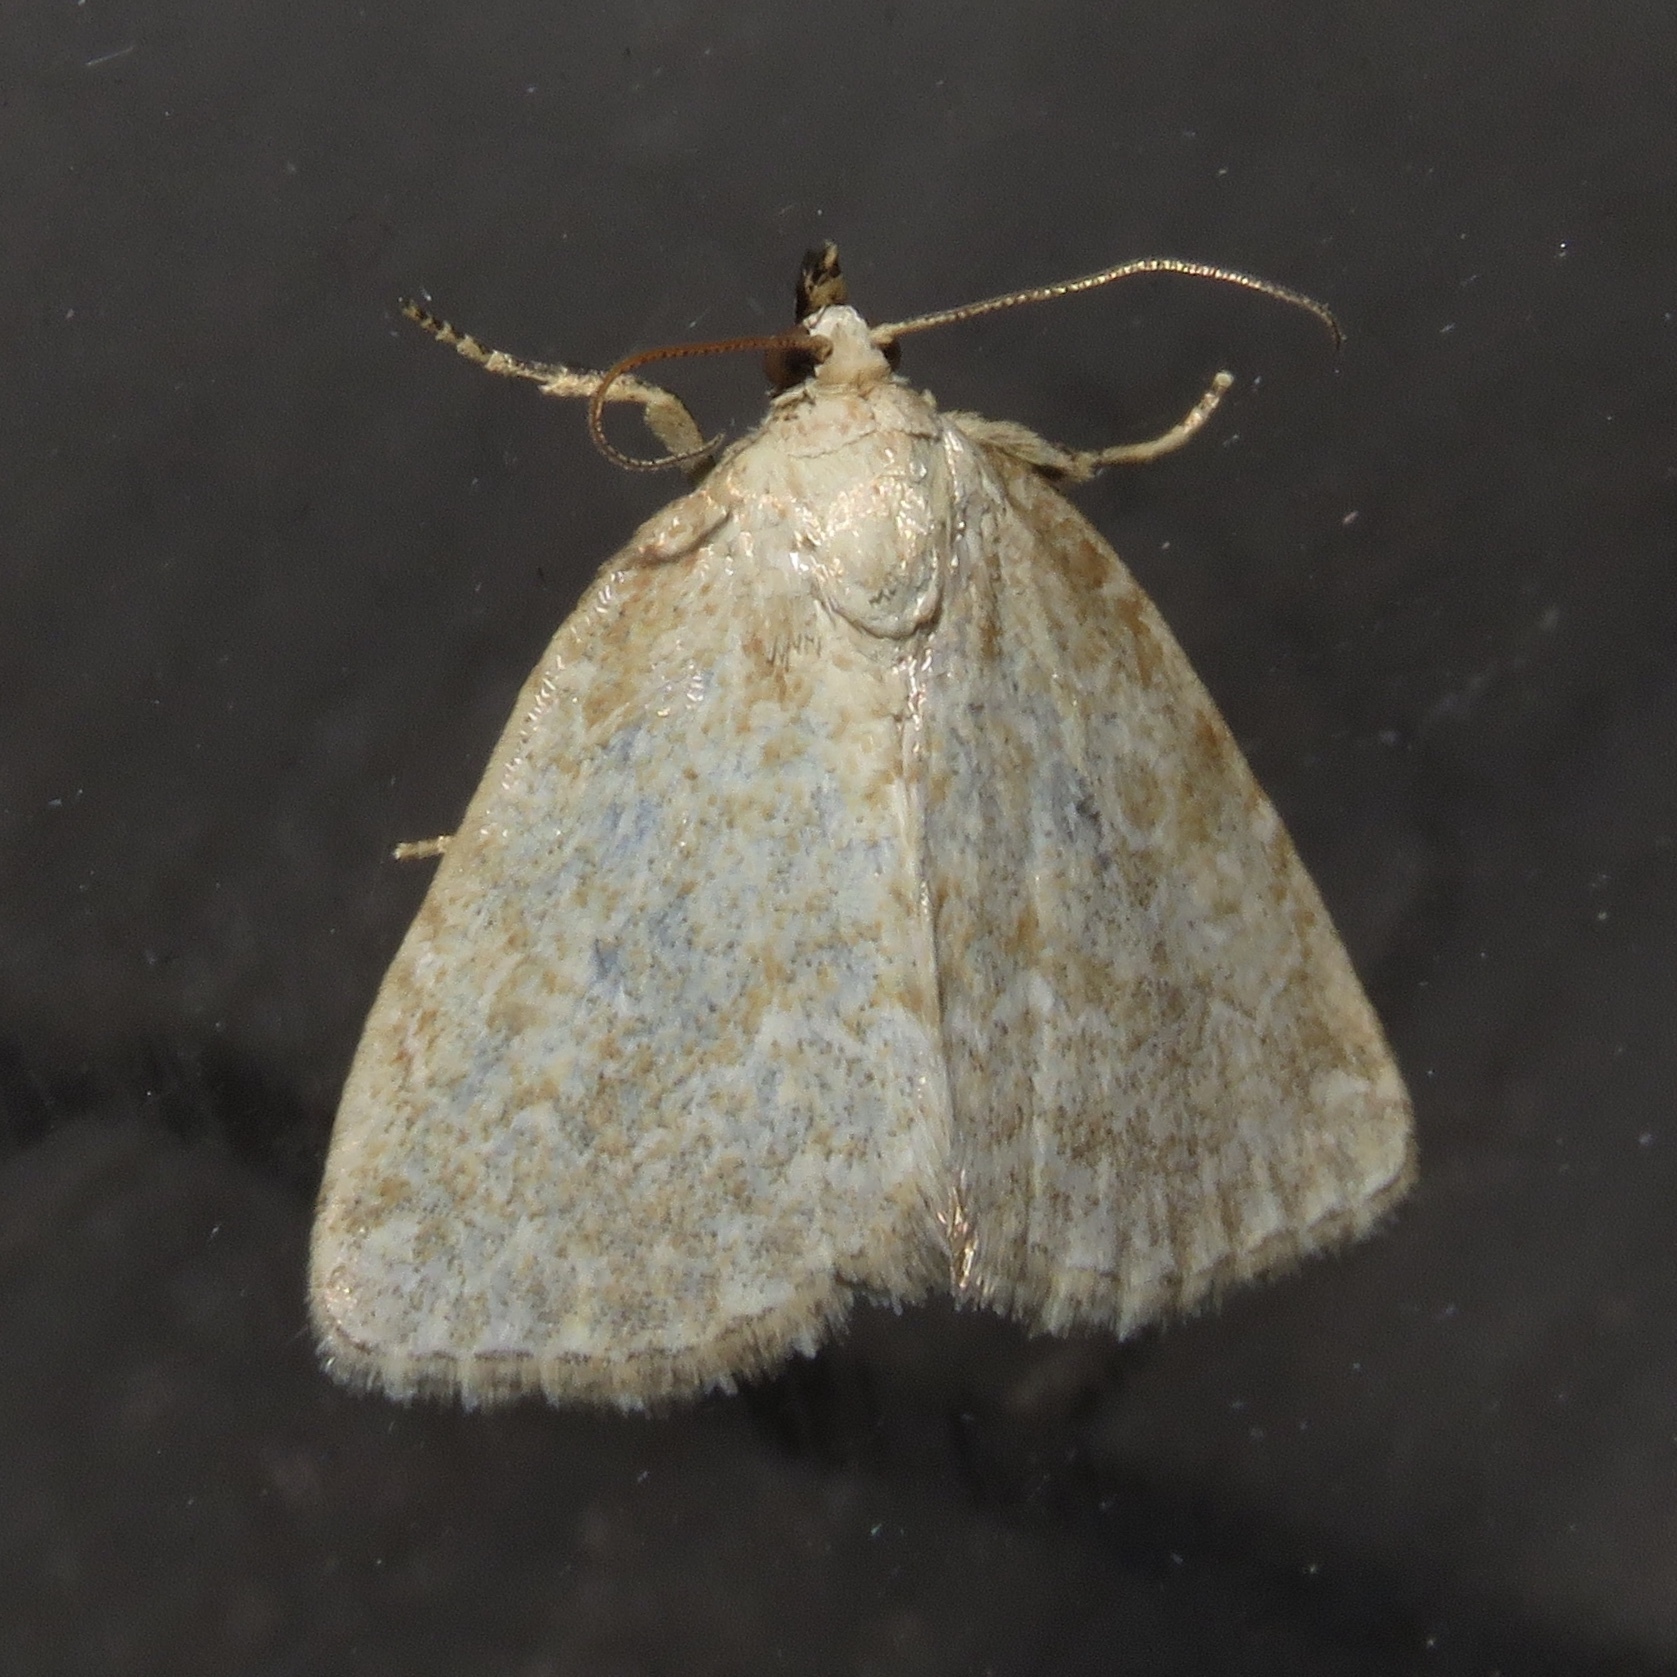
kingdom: Animalia
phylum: Arthropoda
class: Insecta
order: Lepidoptera
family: Noctuidae
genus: Protodeltote
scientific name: Protodeltote albidula
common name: Pale glyph
